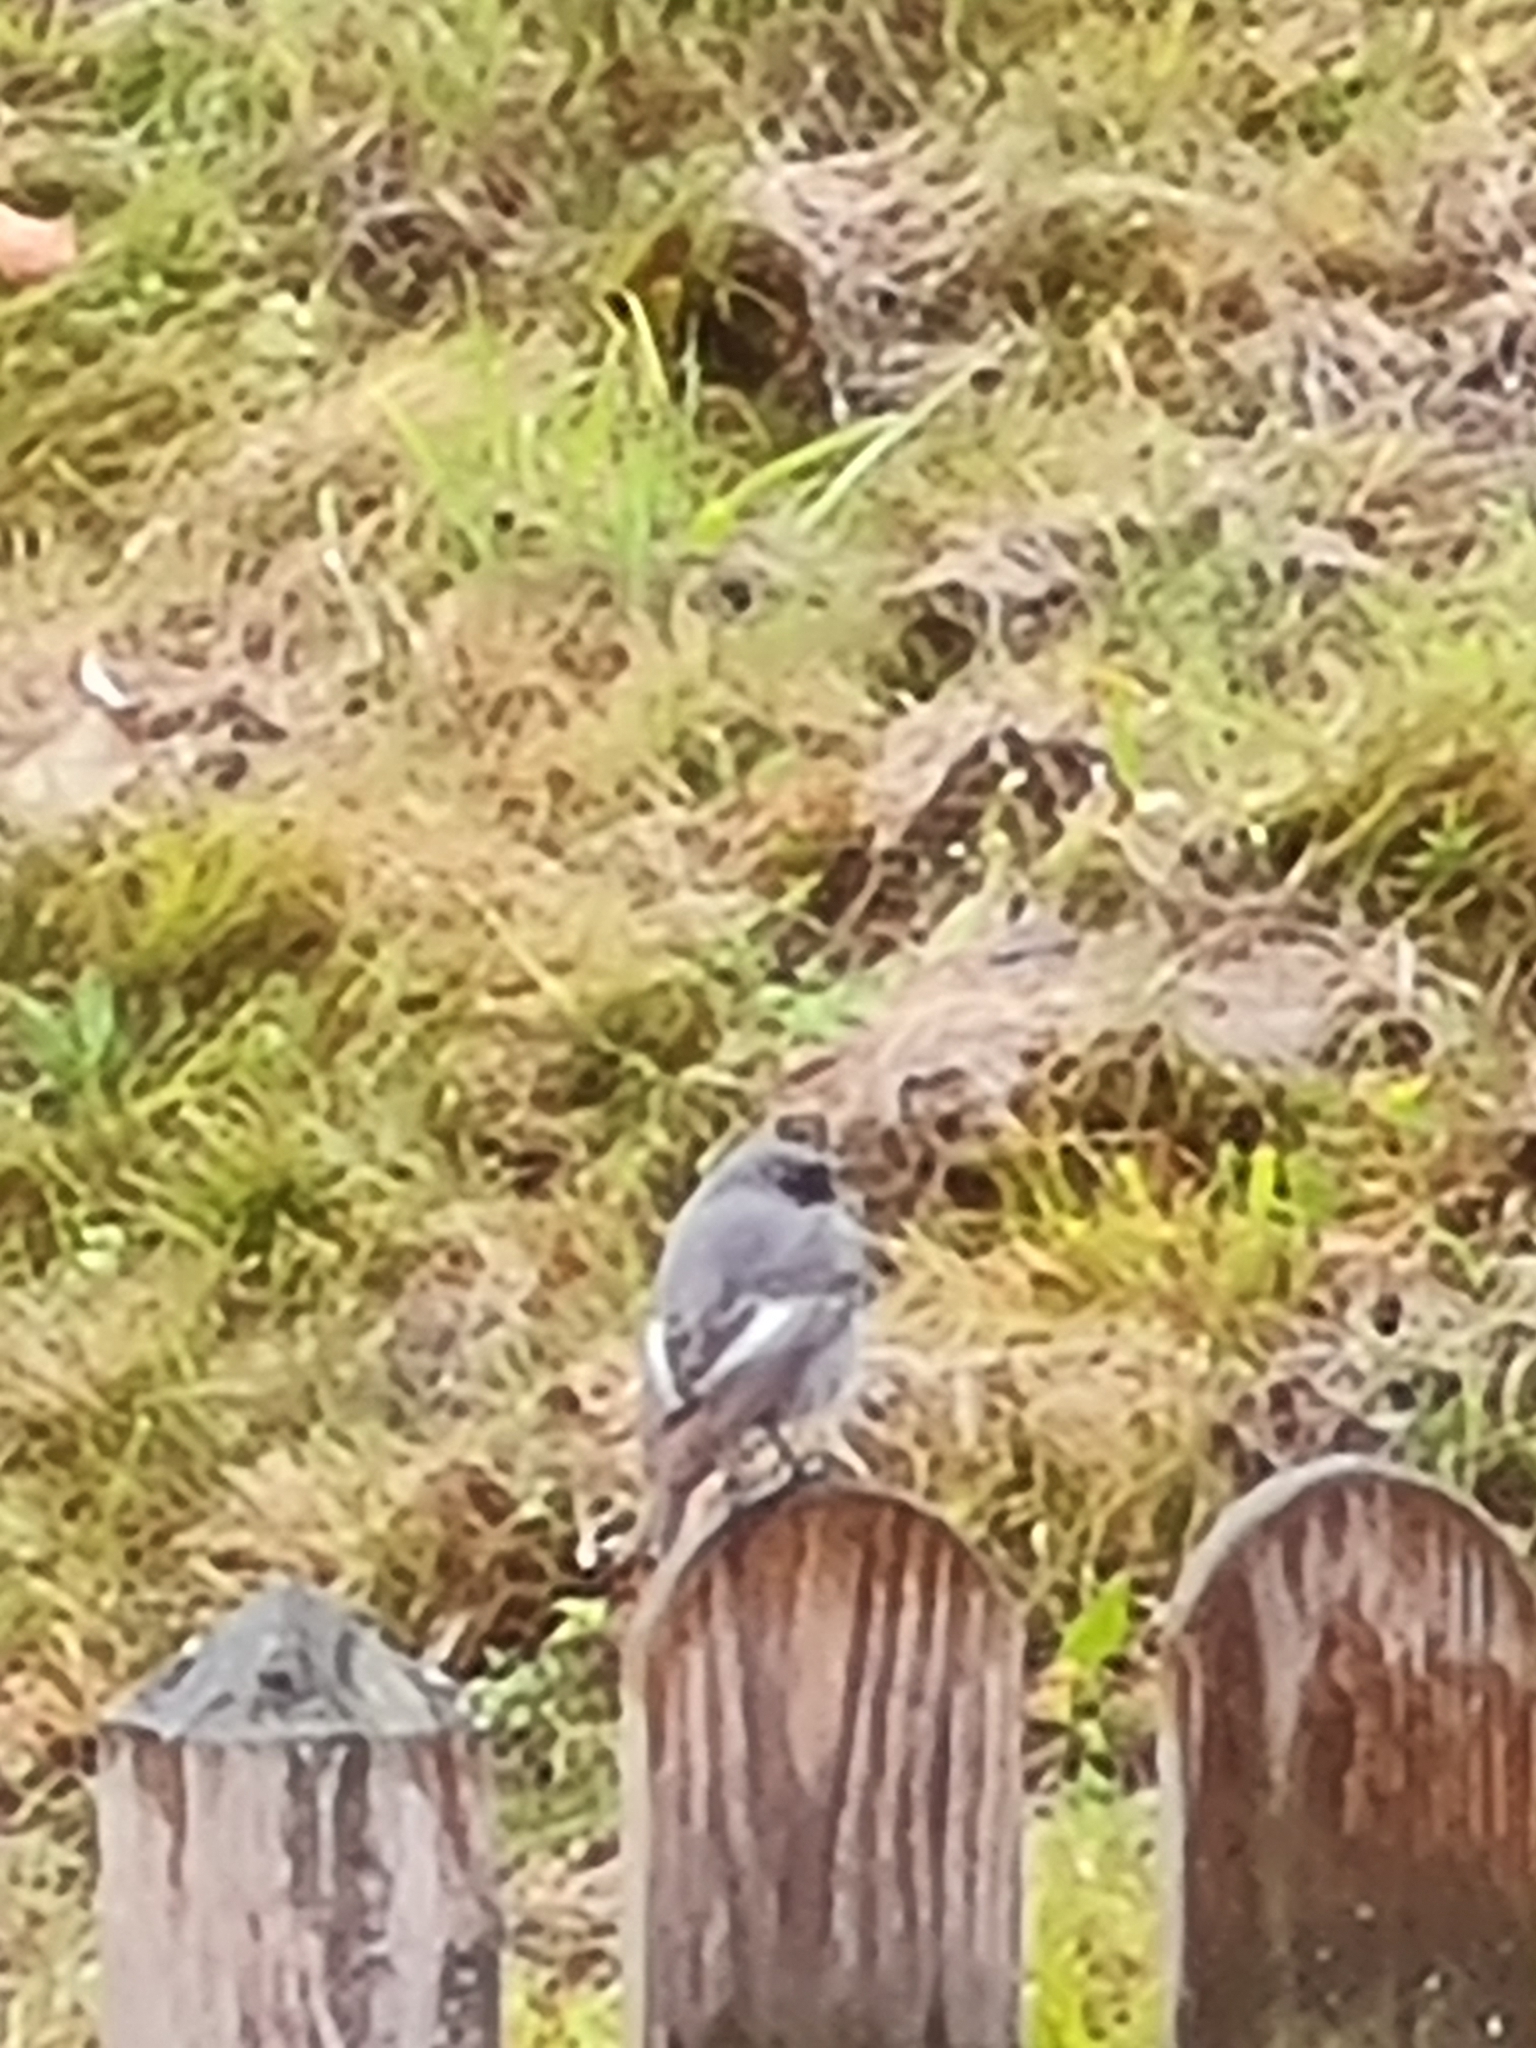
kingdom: Animalia
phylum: Chordata
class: Aves
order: Passeriformes
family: Muscicapidae
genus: Phoenicurus
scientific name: Phoenicurus ochruros
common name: Black redstart
